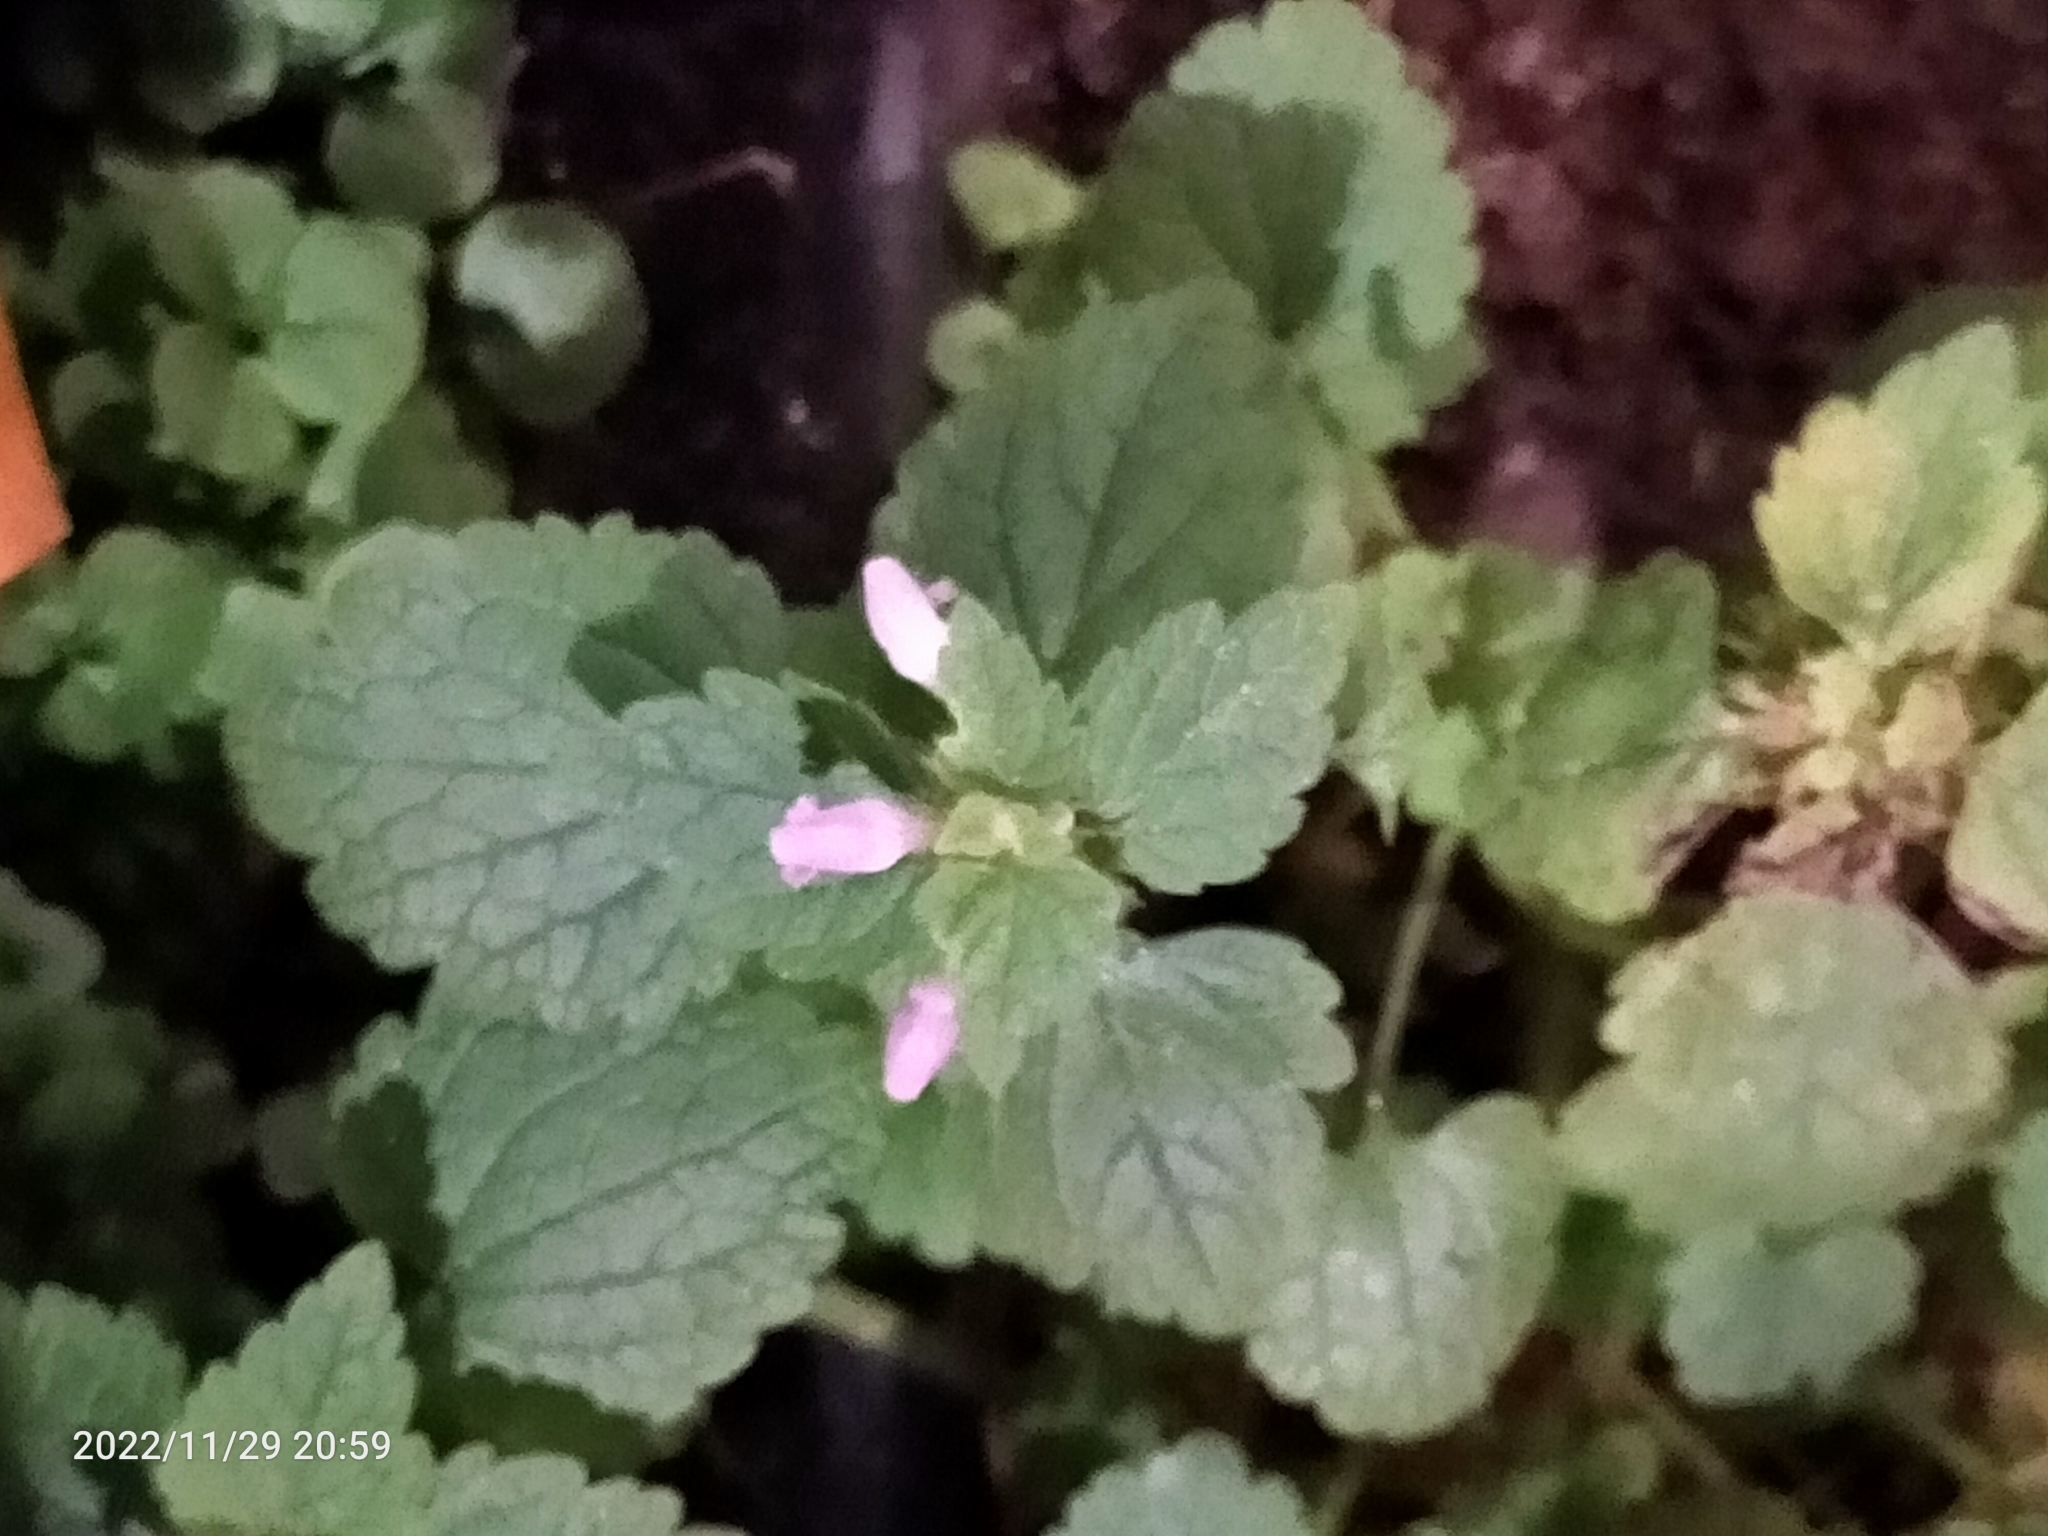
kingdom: Plantae
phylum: Tracheophyta
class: Magnoliopsida
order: Lamiales
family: Lamiaceae
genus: Lamium
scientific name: Lamium purpureum
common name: Red dead-nettle
